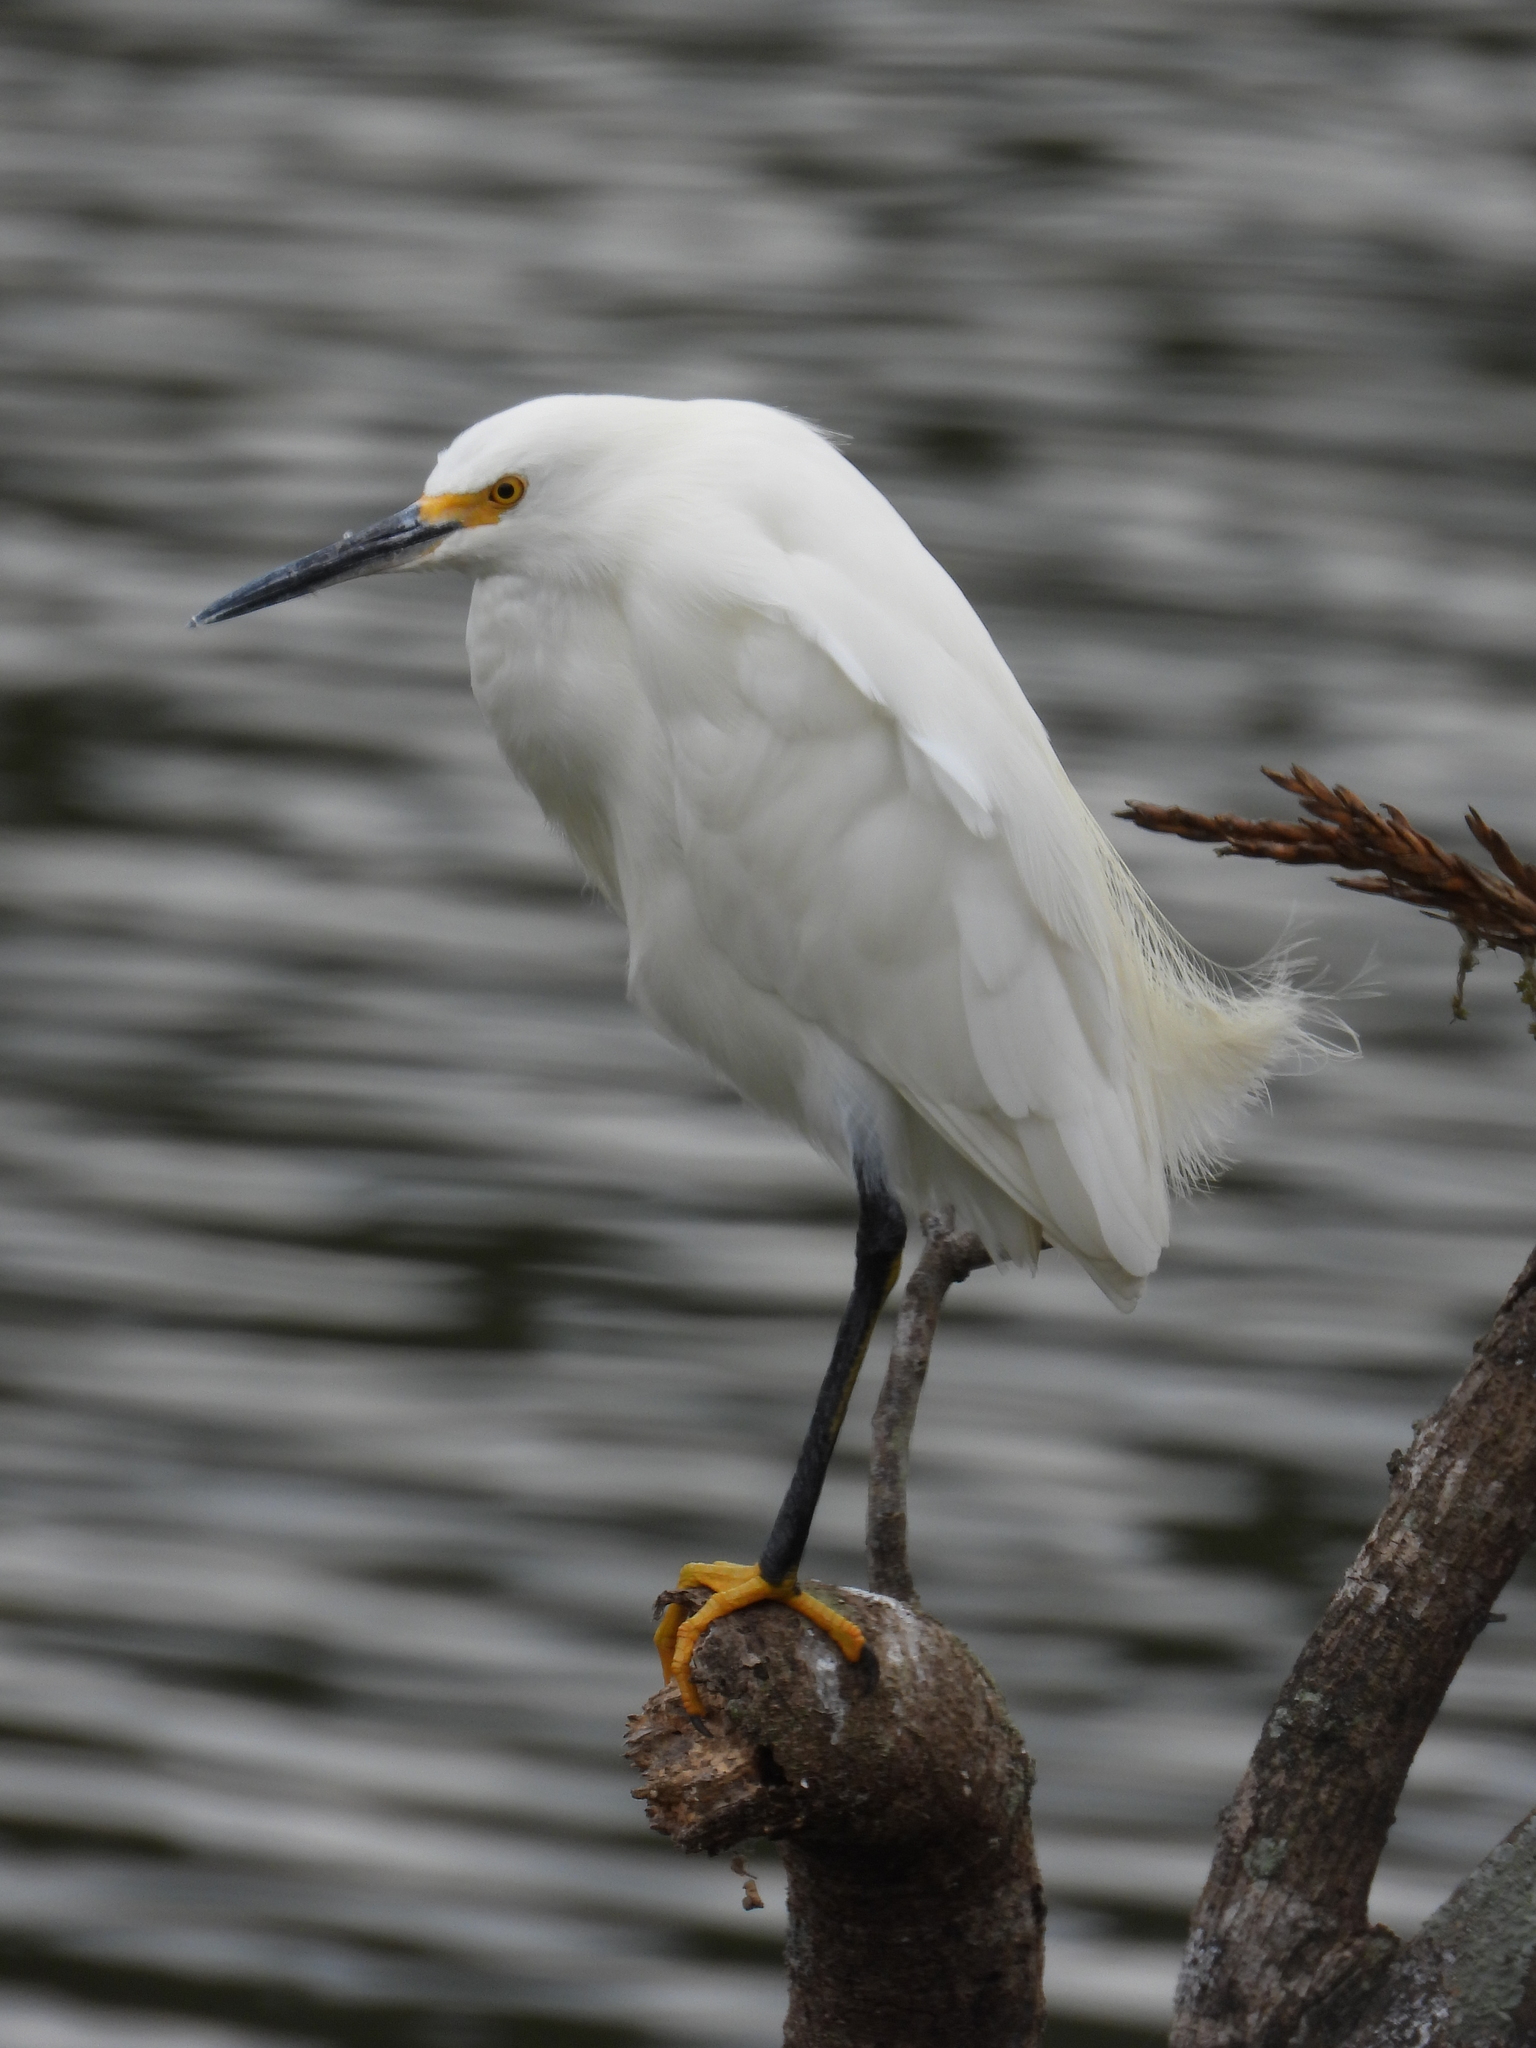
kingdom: Animalia
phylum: Chordata
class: Aves
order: Pelecaniformes
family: Ardeidae
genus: Egretta
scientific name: Egretta thula
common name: Snowy egret
